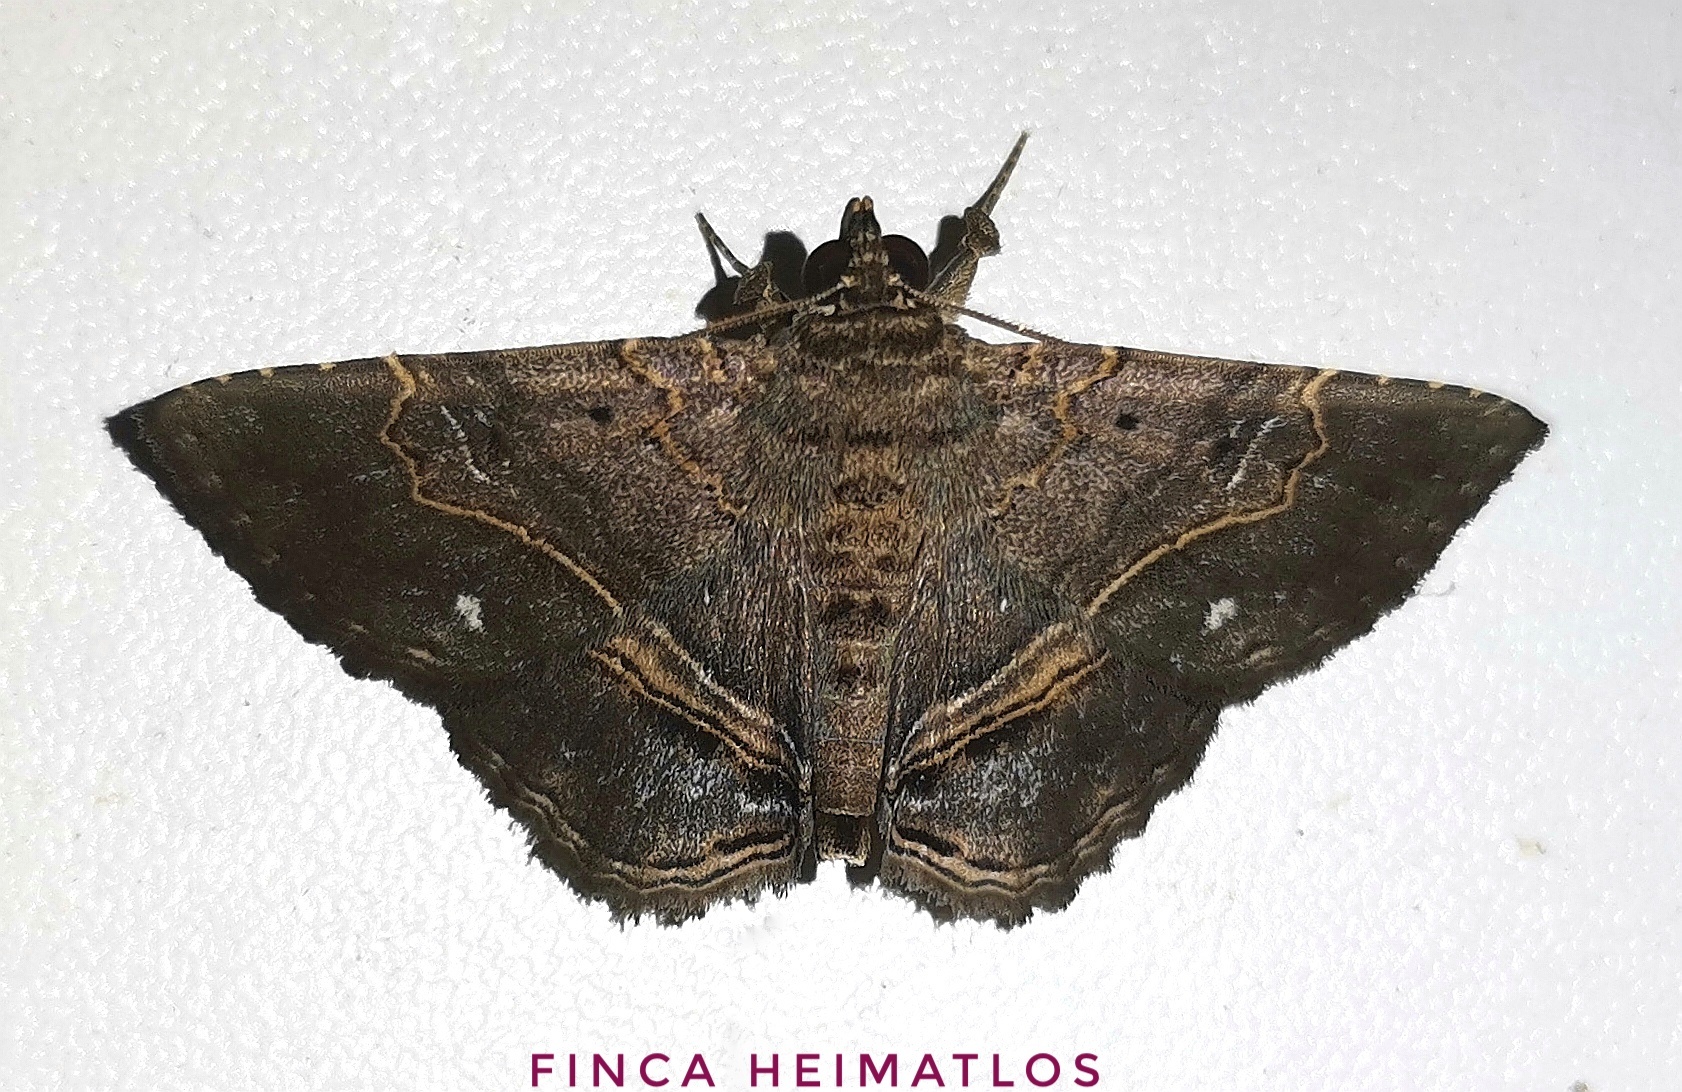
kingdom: Animalia
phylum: Arthropoda
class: Insecta
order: Lepidoptera
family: Erebidae
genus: Phaeoblemma
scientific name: Phaeoblemma albipuncta
